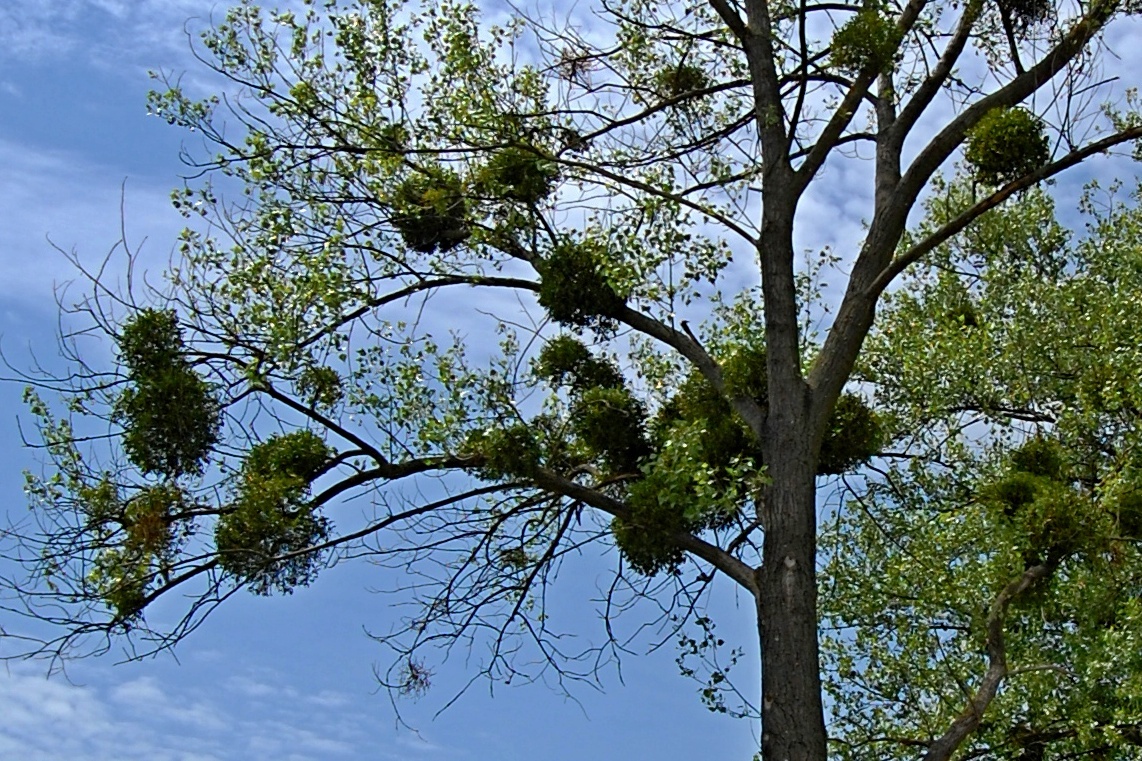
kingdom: Plantae
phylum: Tracheophyta
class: Magnoliopsida
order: Santalales
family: Viscaceae
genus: Viscum
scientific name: Viscum album
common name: Mistletoe
